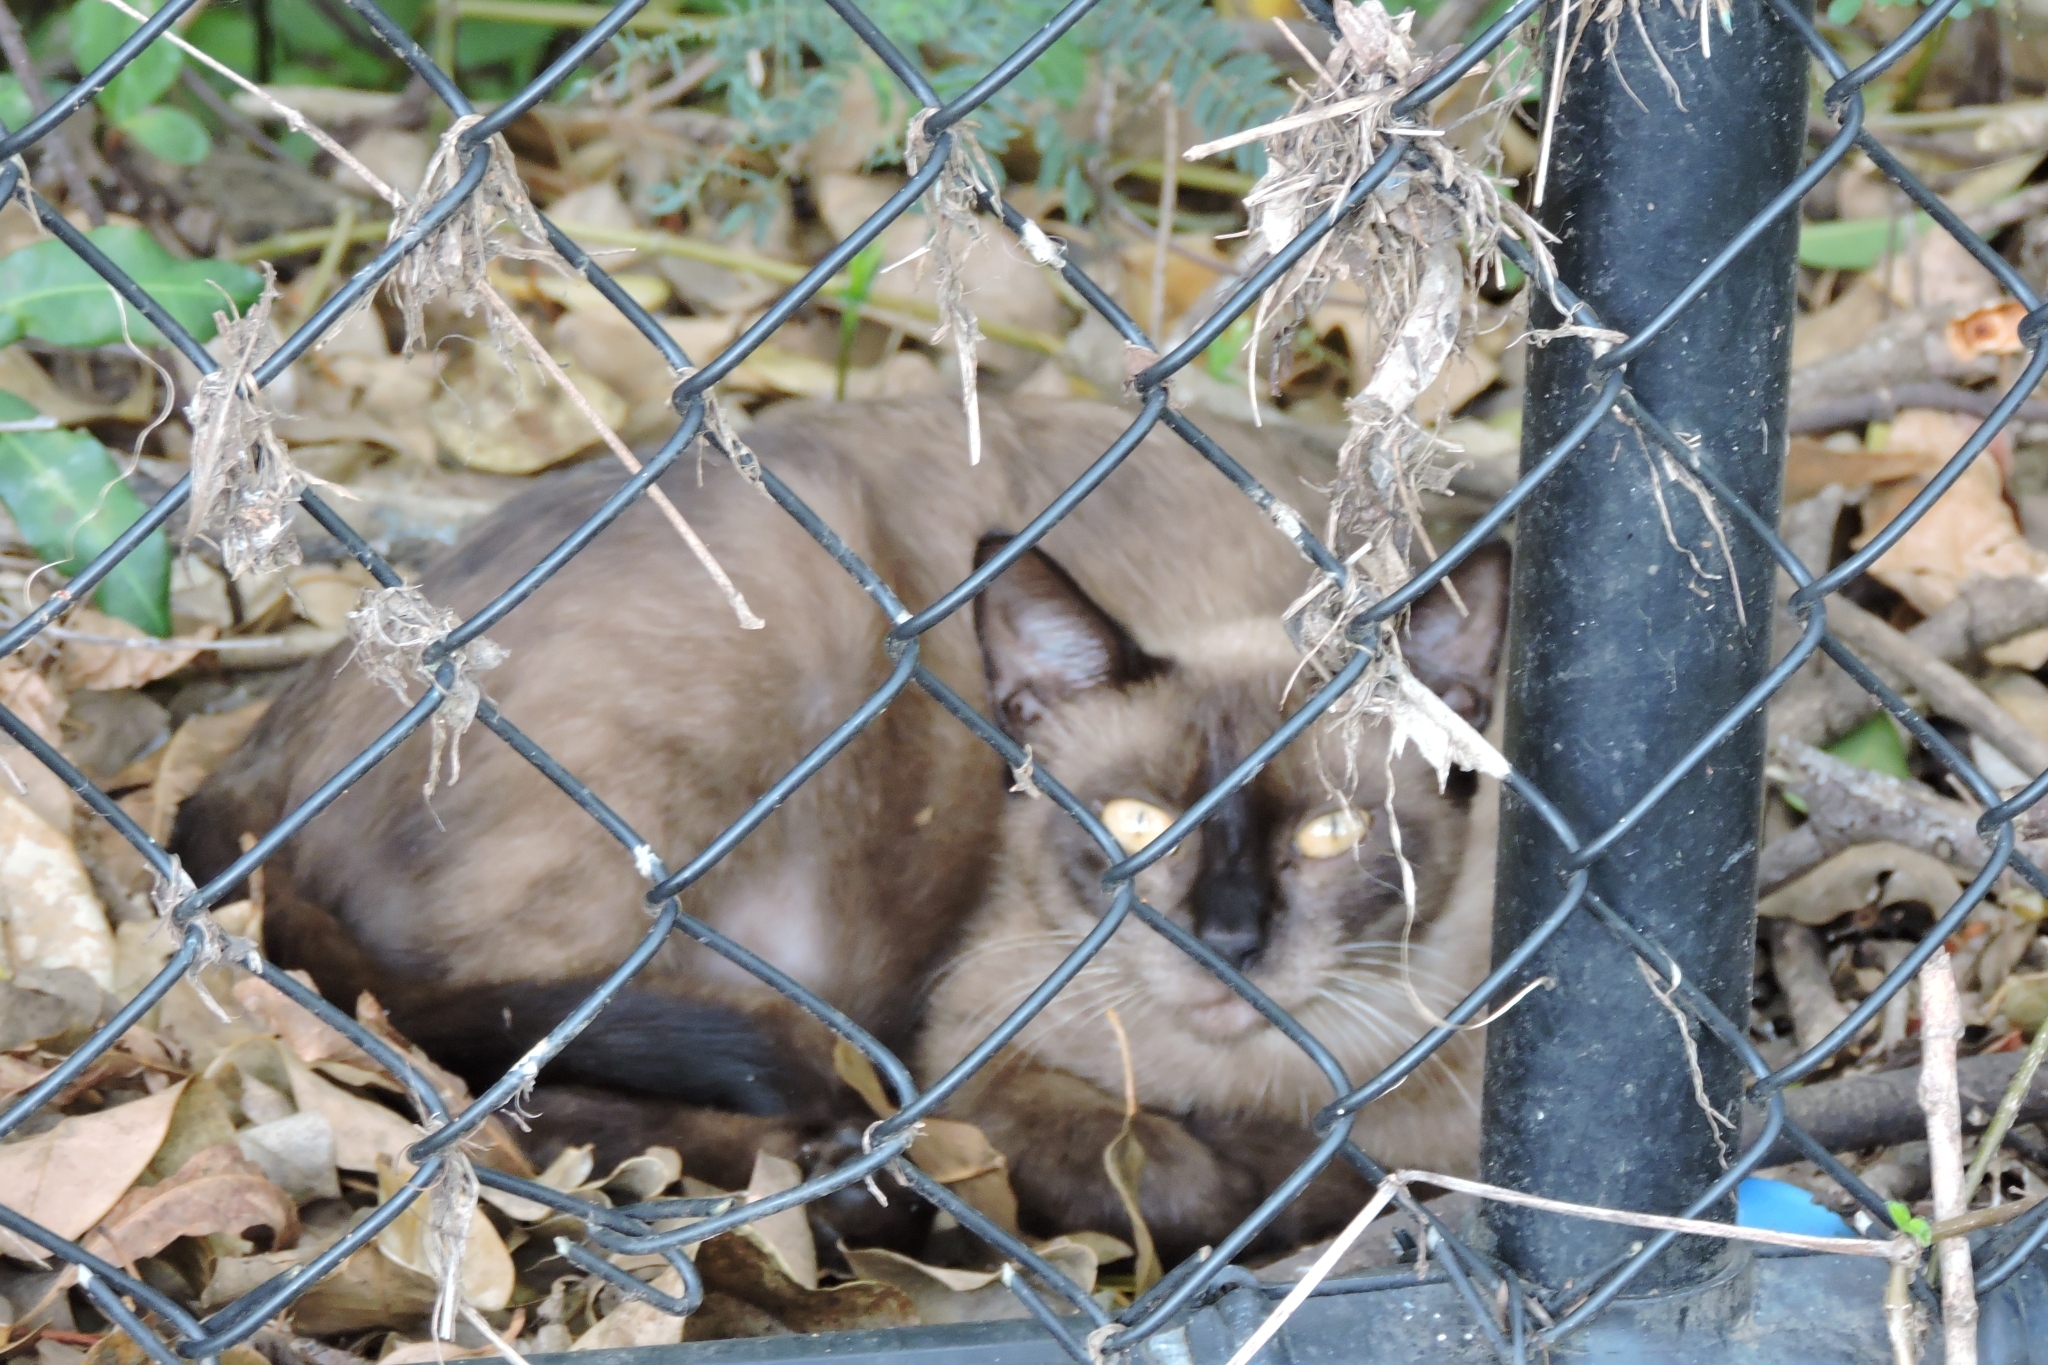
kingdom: Animalia
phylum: Chordata
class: Mammalia
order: Carnivora
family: Felidae
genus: Felis
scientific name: Felis catus
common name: Domestic cat
